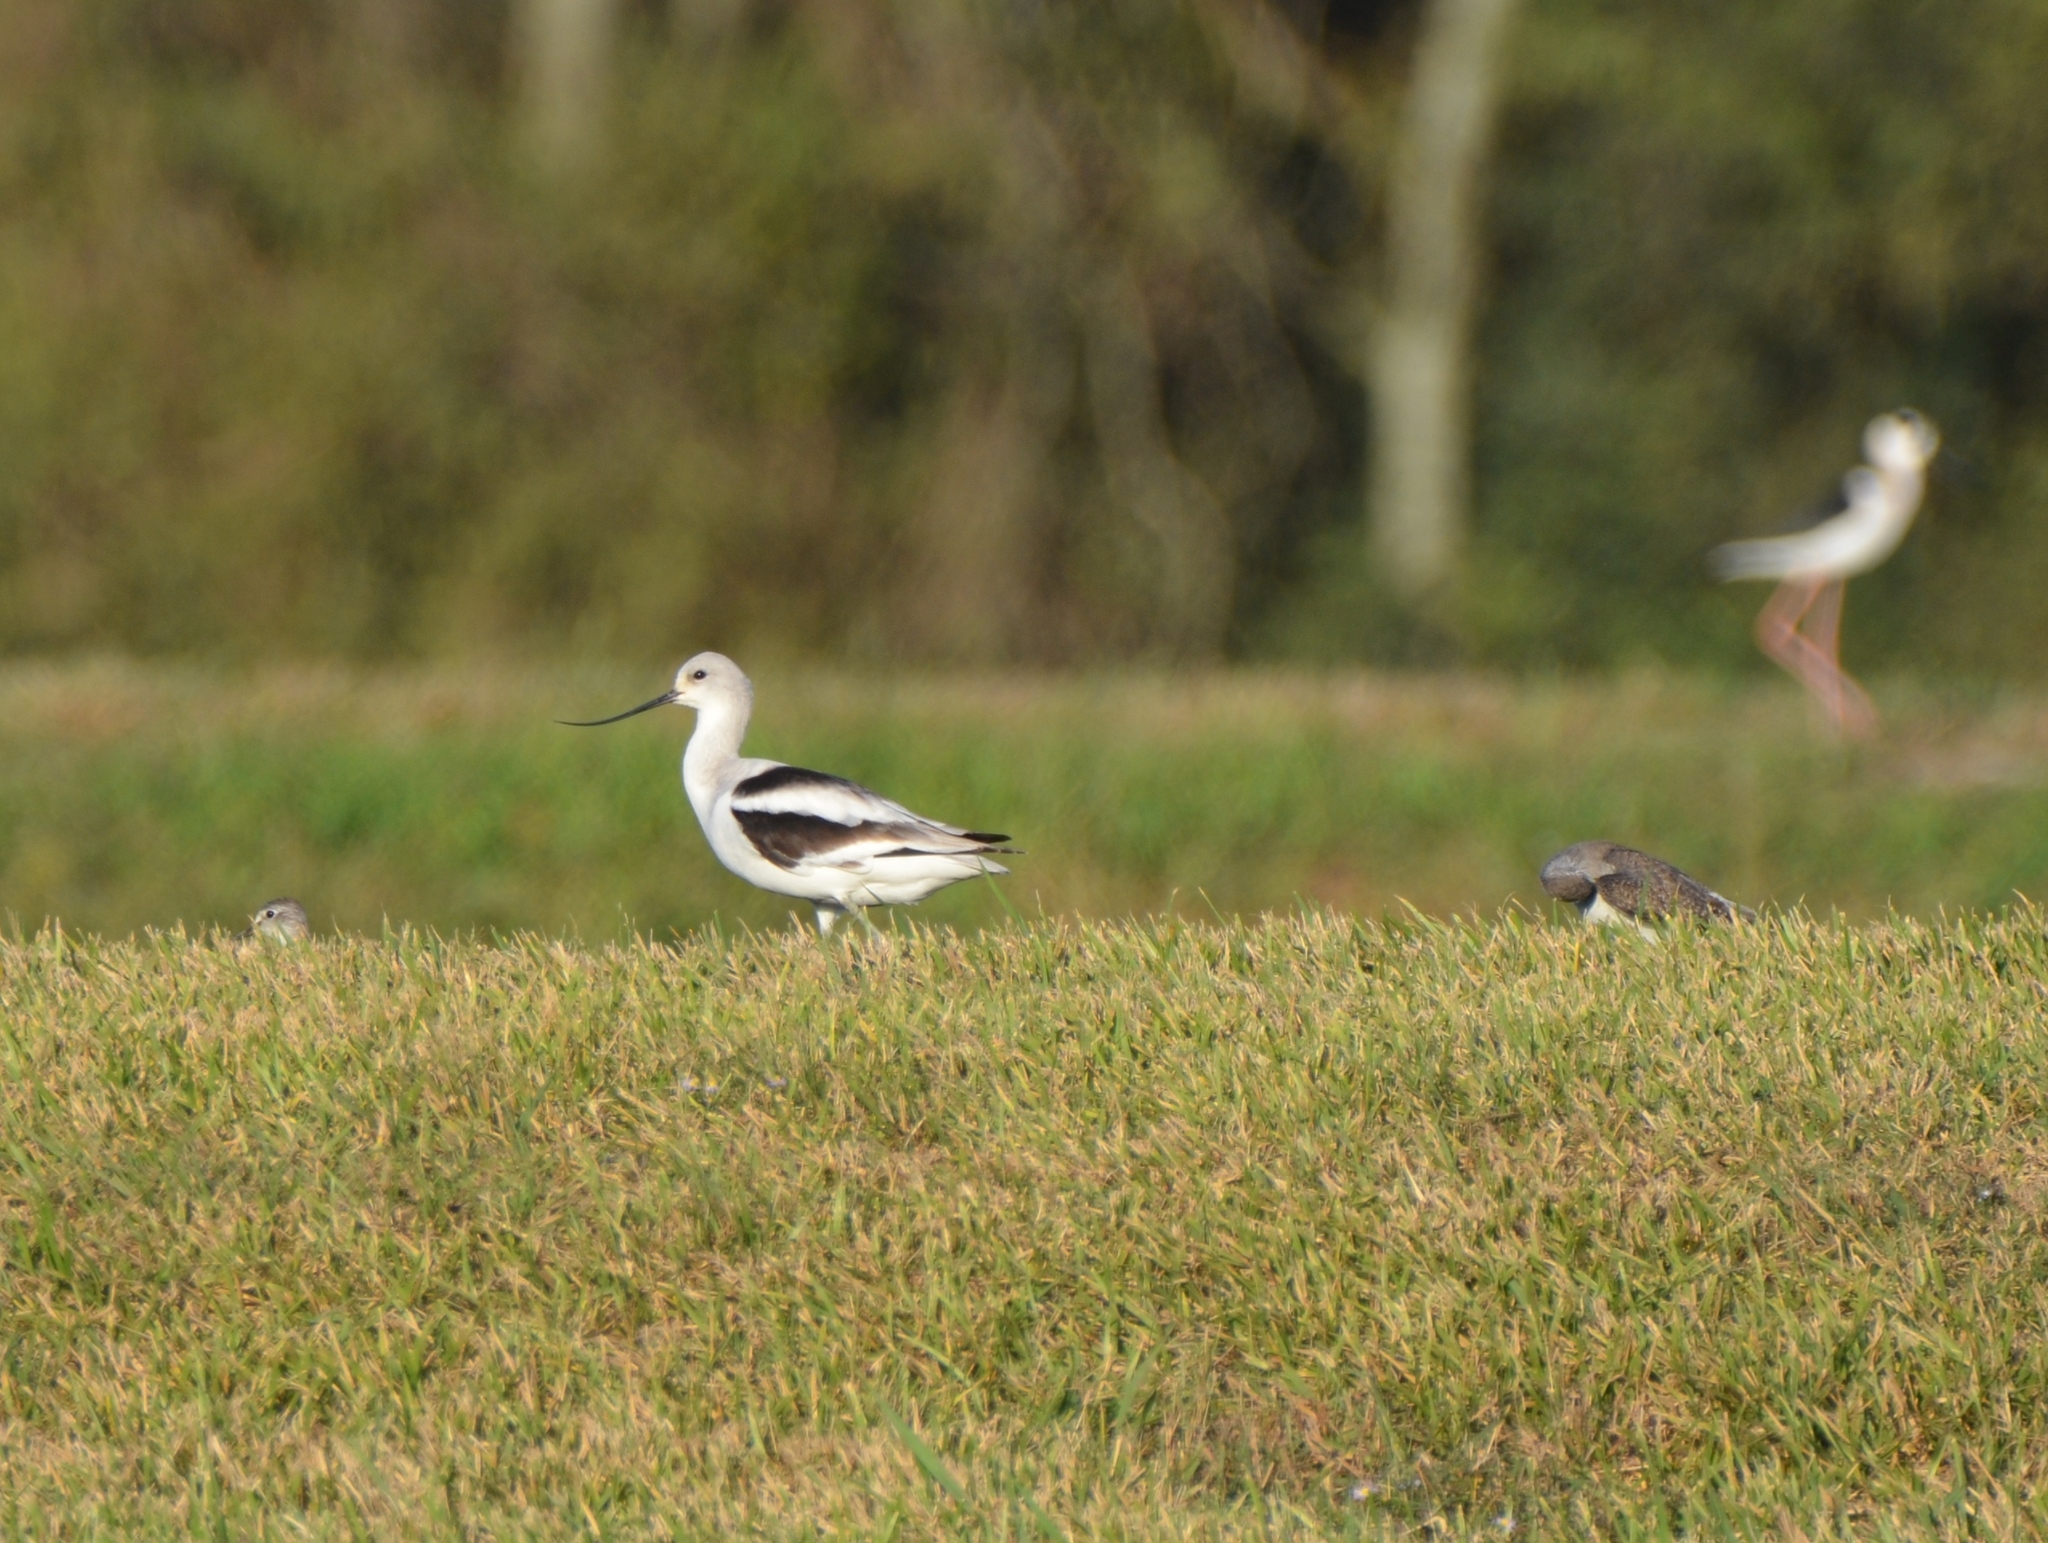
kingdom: Animalia
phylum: Chordata
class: Aves
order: Charadriiformes
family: Recurvirostridae
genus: Recurvirostra
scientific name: Recurvirostra americana
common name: American avocet
